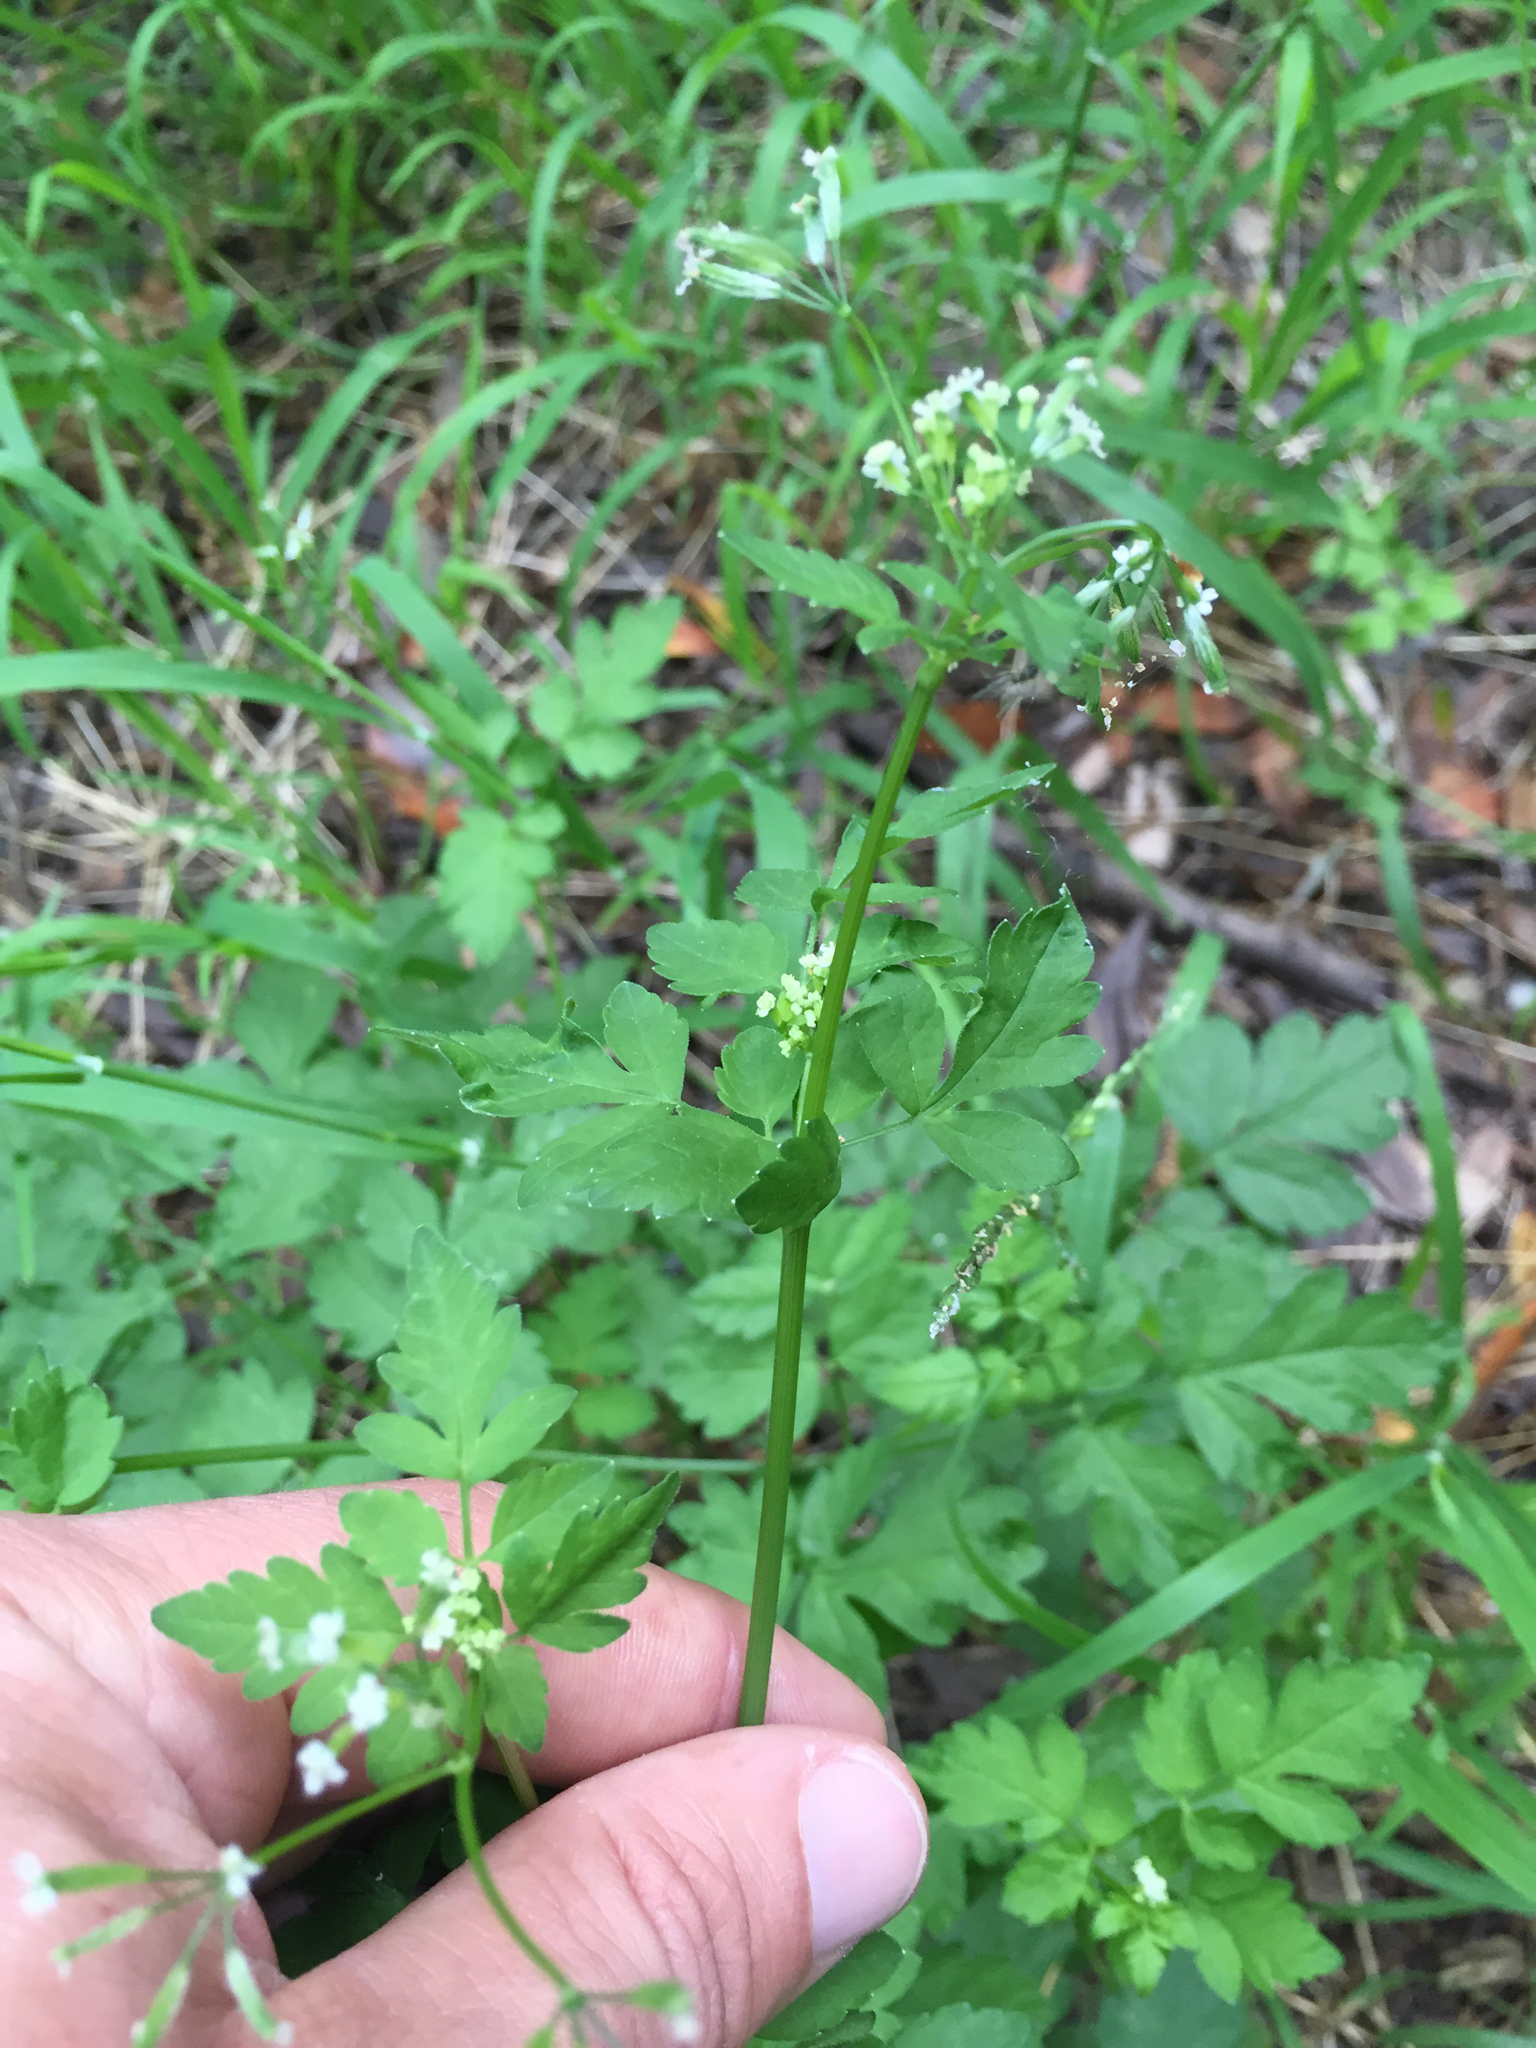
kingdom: Plantae
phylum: Tracheophyta
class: Magnoliopsida
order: Apiales
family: Apiaceae
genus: Osmorhiza
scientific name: Osmorhiza berteroi
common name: Mountain sweet cicely
